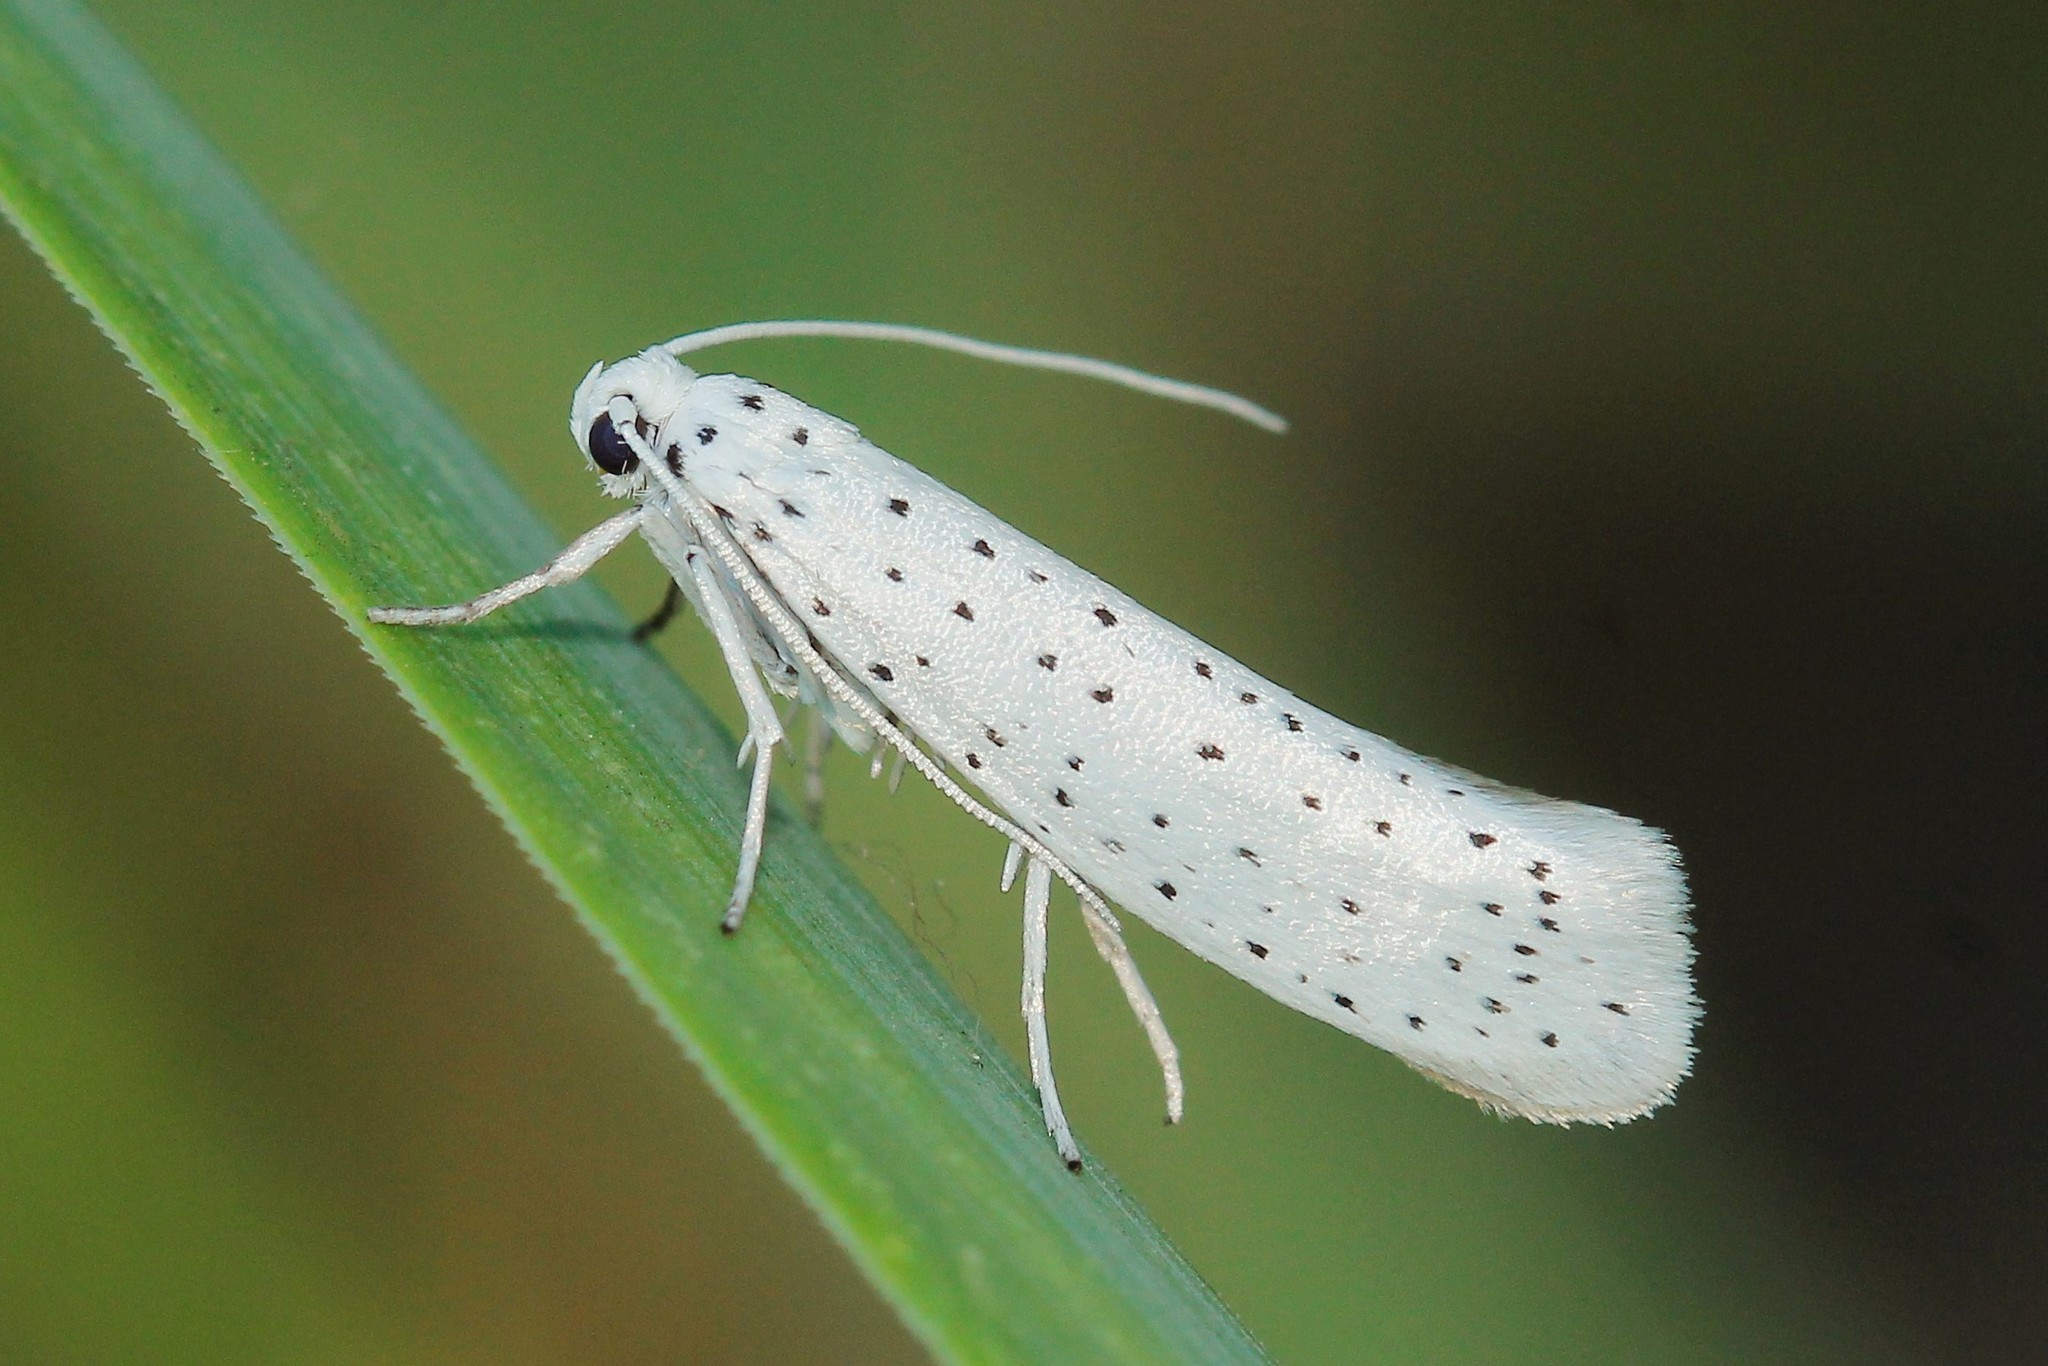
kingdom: Animalia
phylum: Arthropoda
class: Insecta
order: Lepidoptera
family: Yponomeutidae
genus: Yponomeuta
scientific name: Yponomeuta evonymella
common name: Bird-cherry ermine
